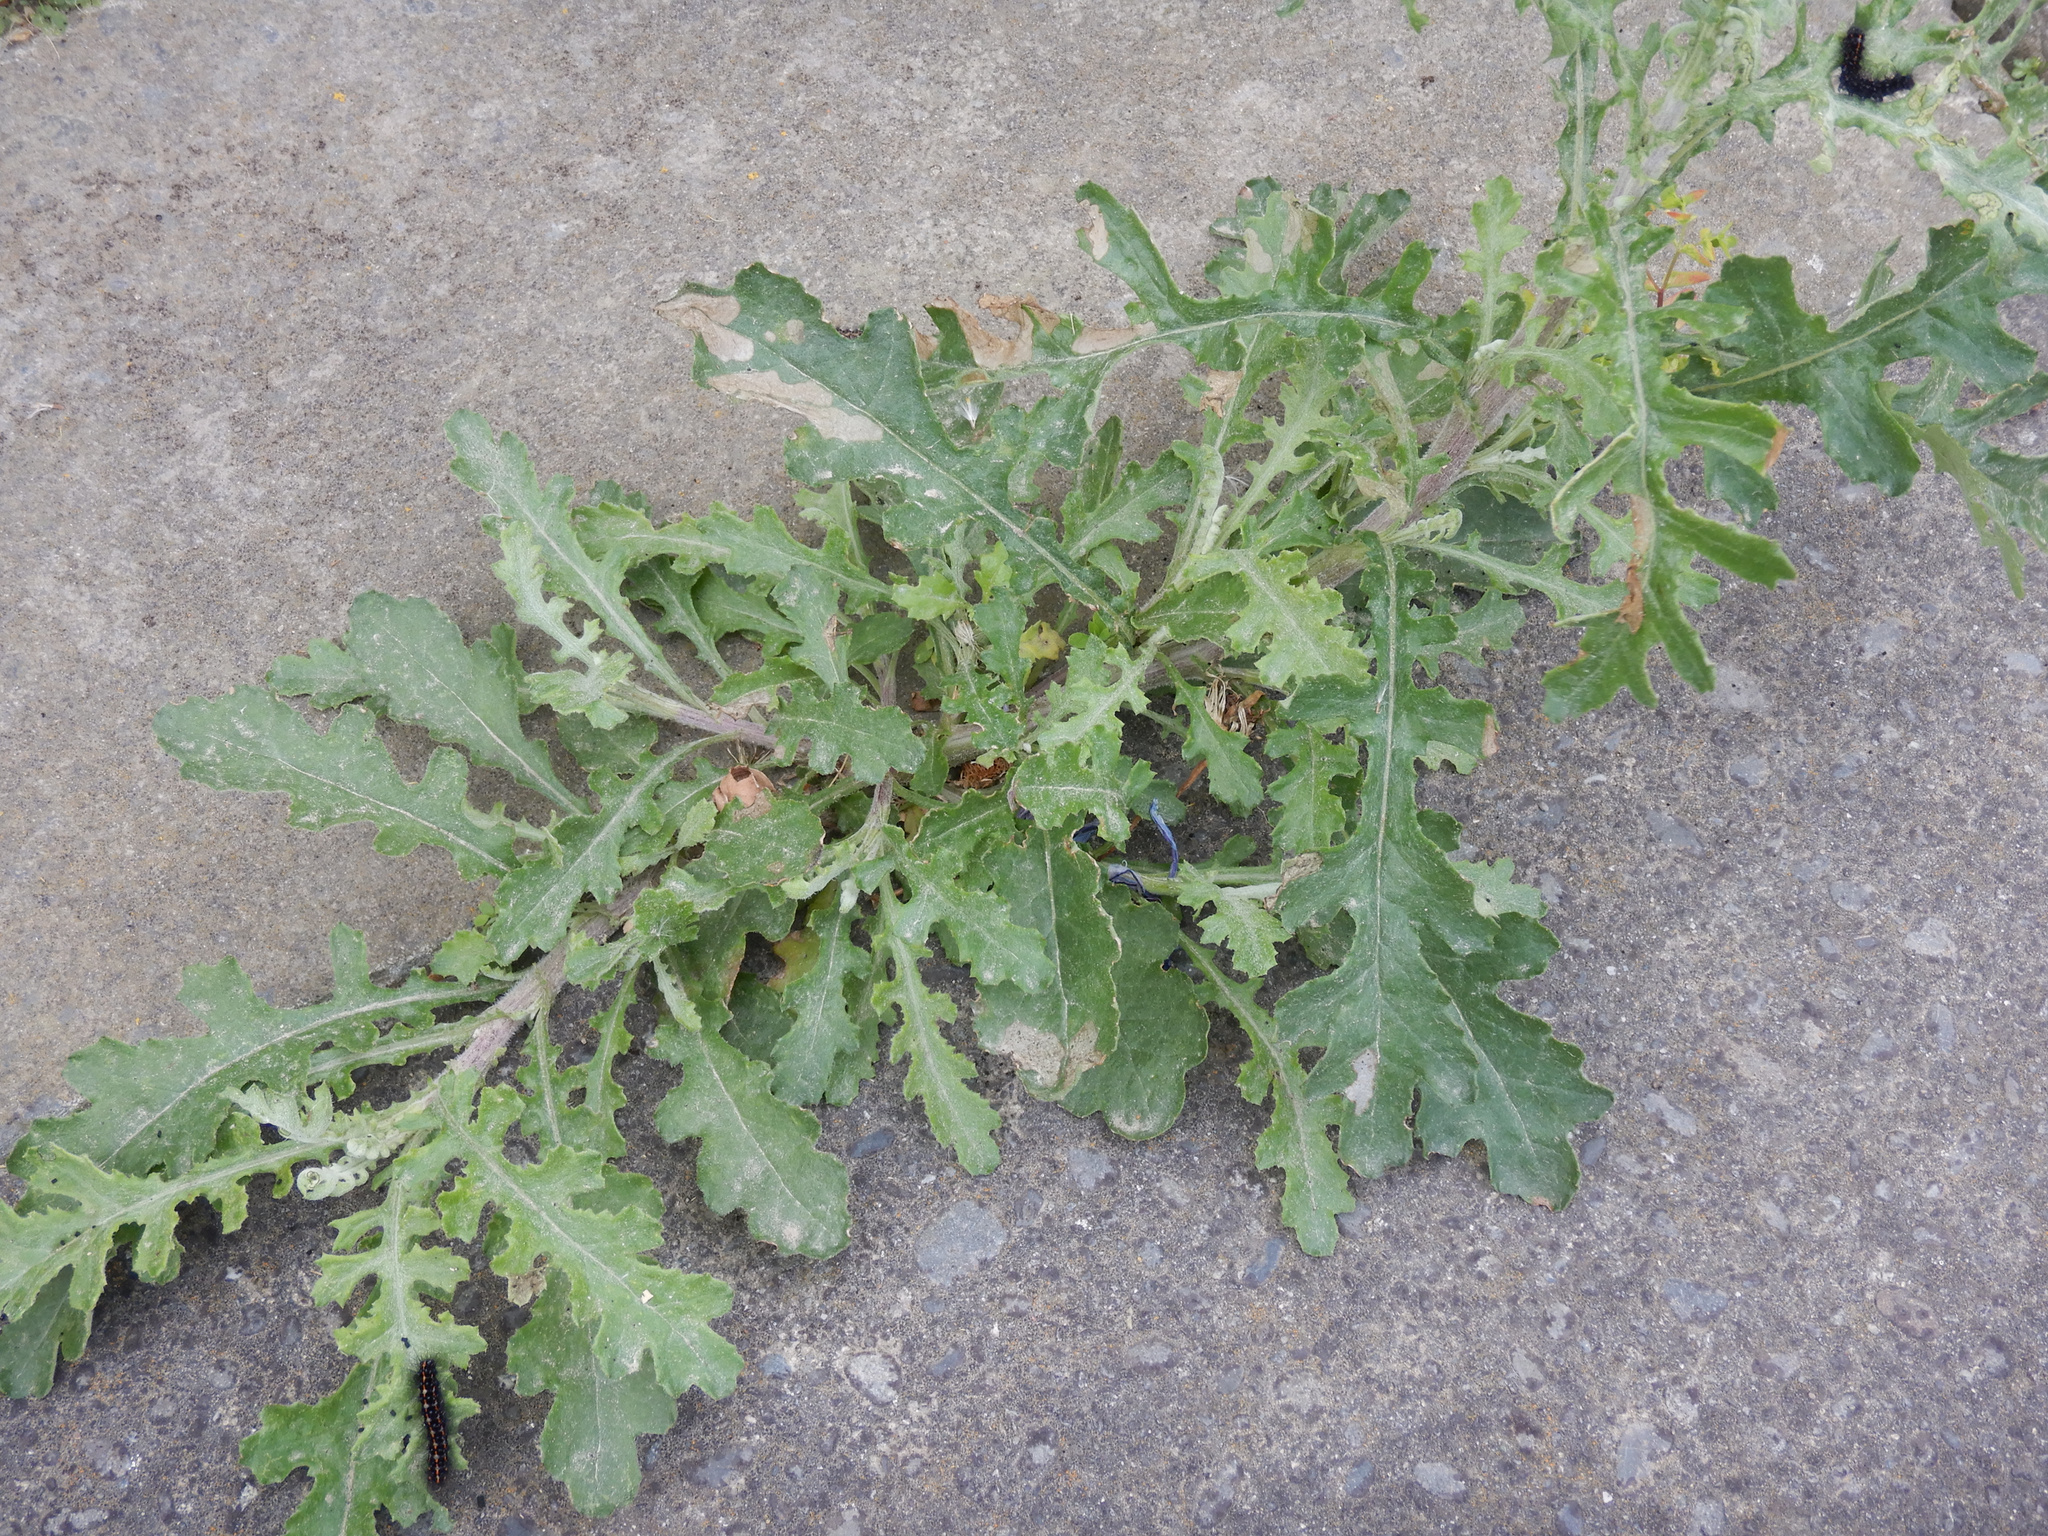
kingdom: Plantae
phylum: Tracheophyta
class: Magnoliopsida
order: Asterales
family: Asteraceae
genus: Senecio
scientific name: Senecio glomeratus
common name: Cutleaf burnweed
